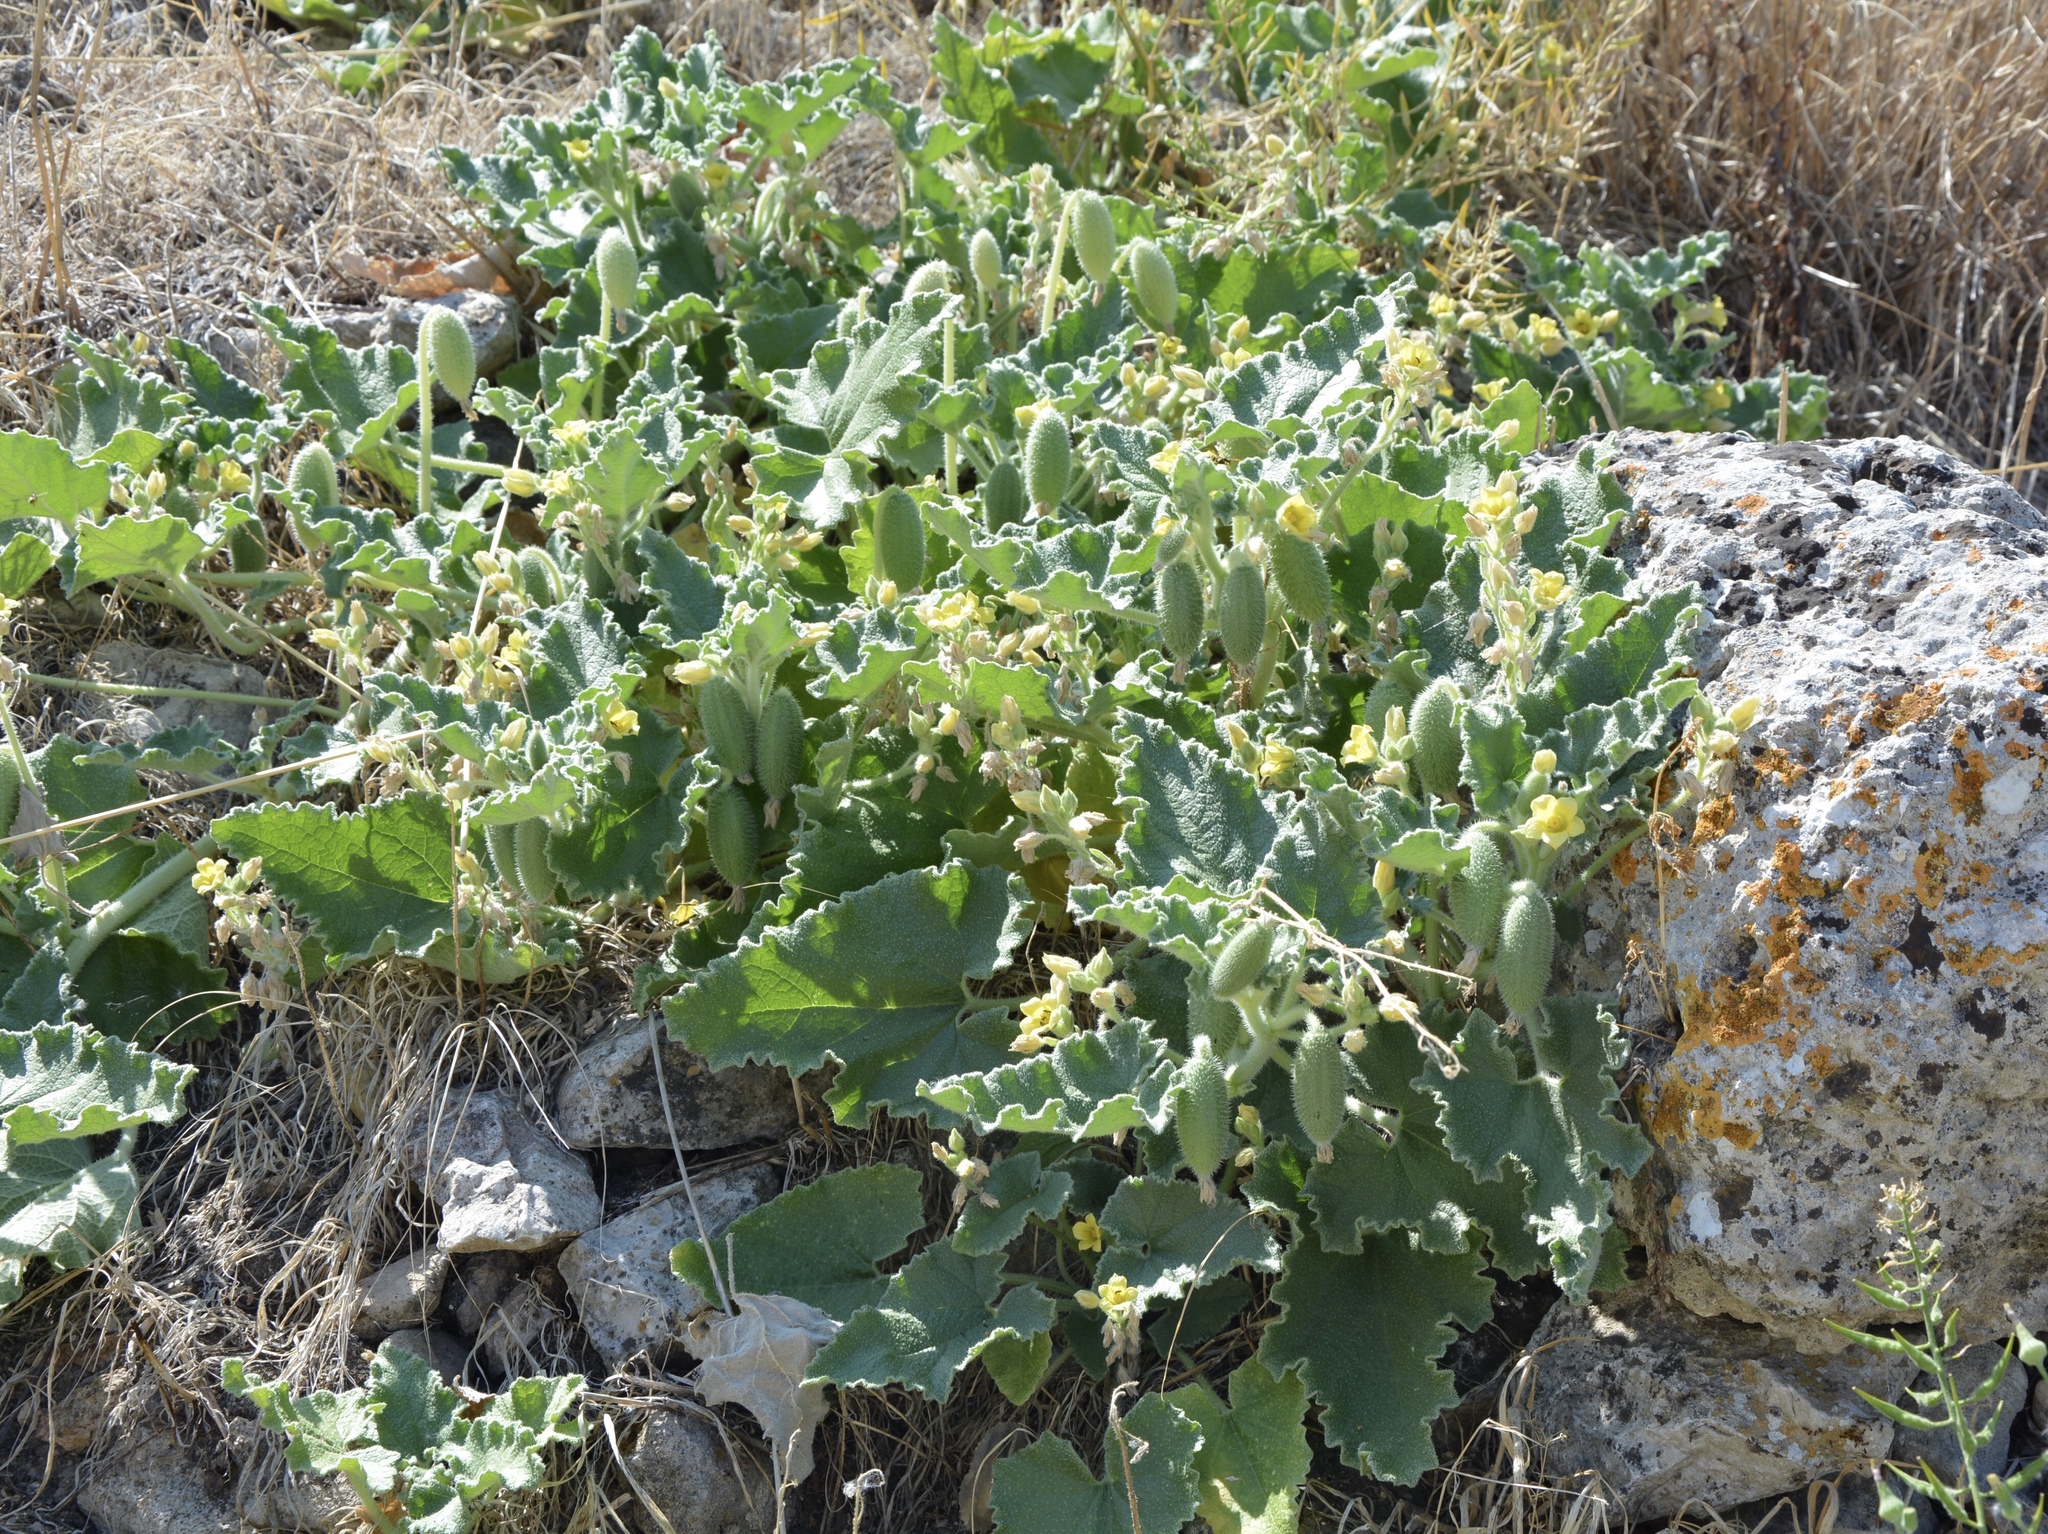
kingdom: Plantae
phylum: Tracheophyta
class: Magnoliopsida
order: Cucurbitales
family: Cucurbitaceae
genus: Ecballium
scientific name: Ecballium elaterium
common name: Squirting cucumber
